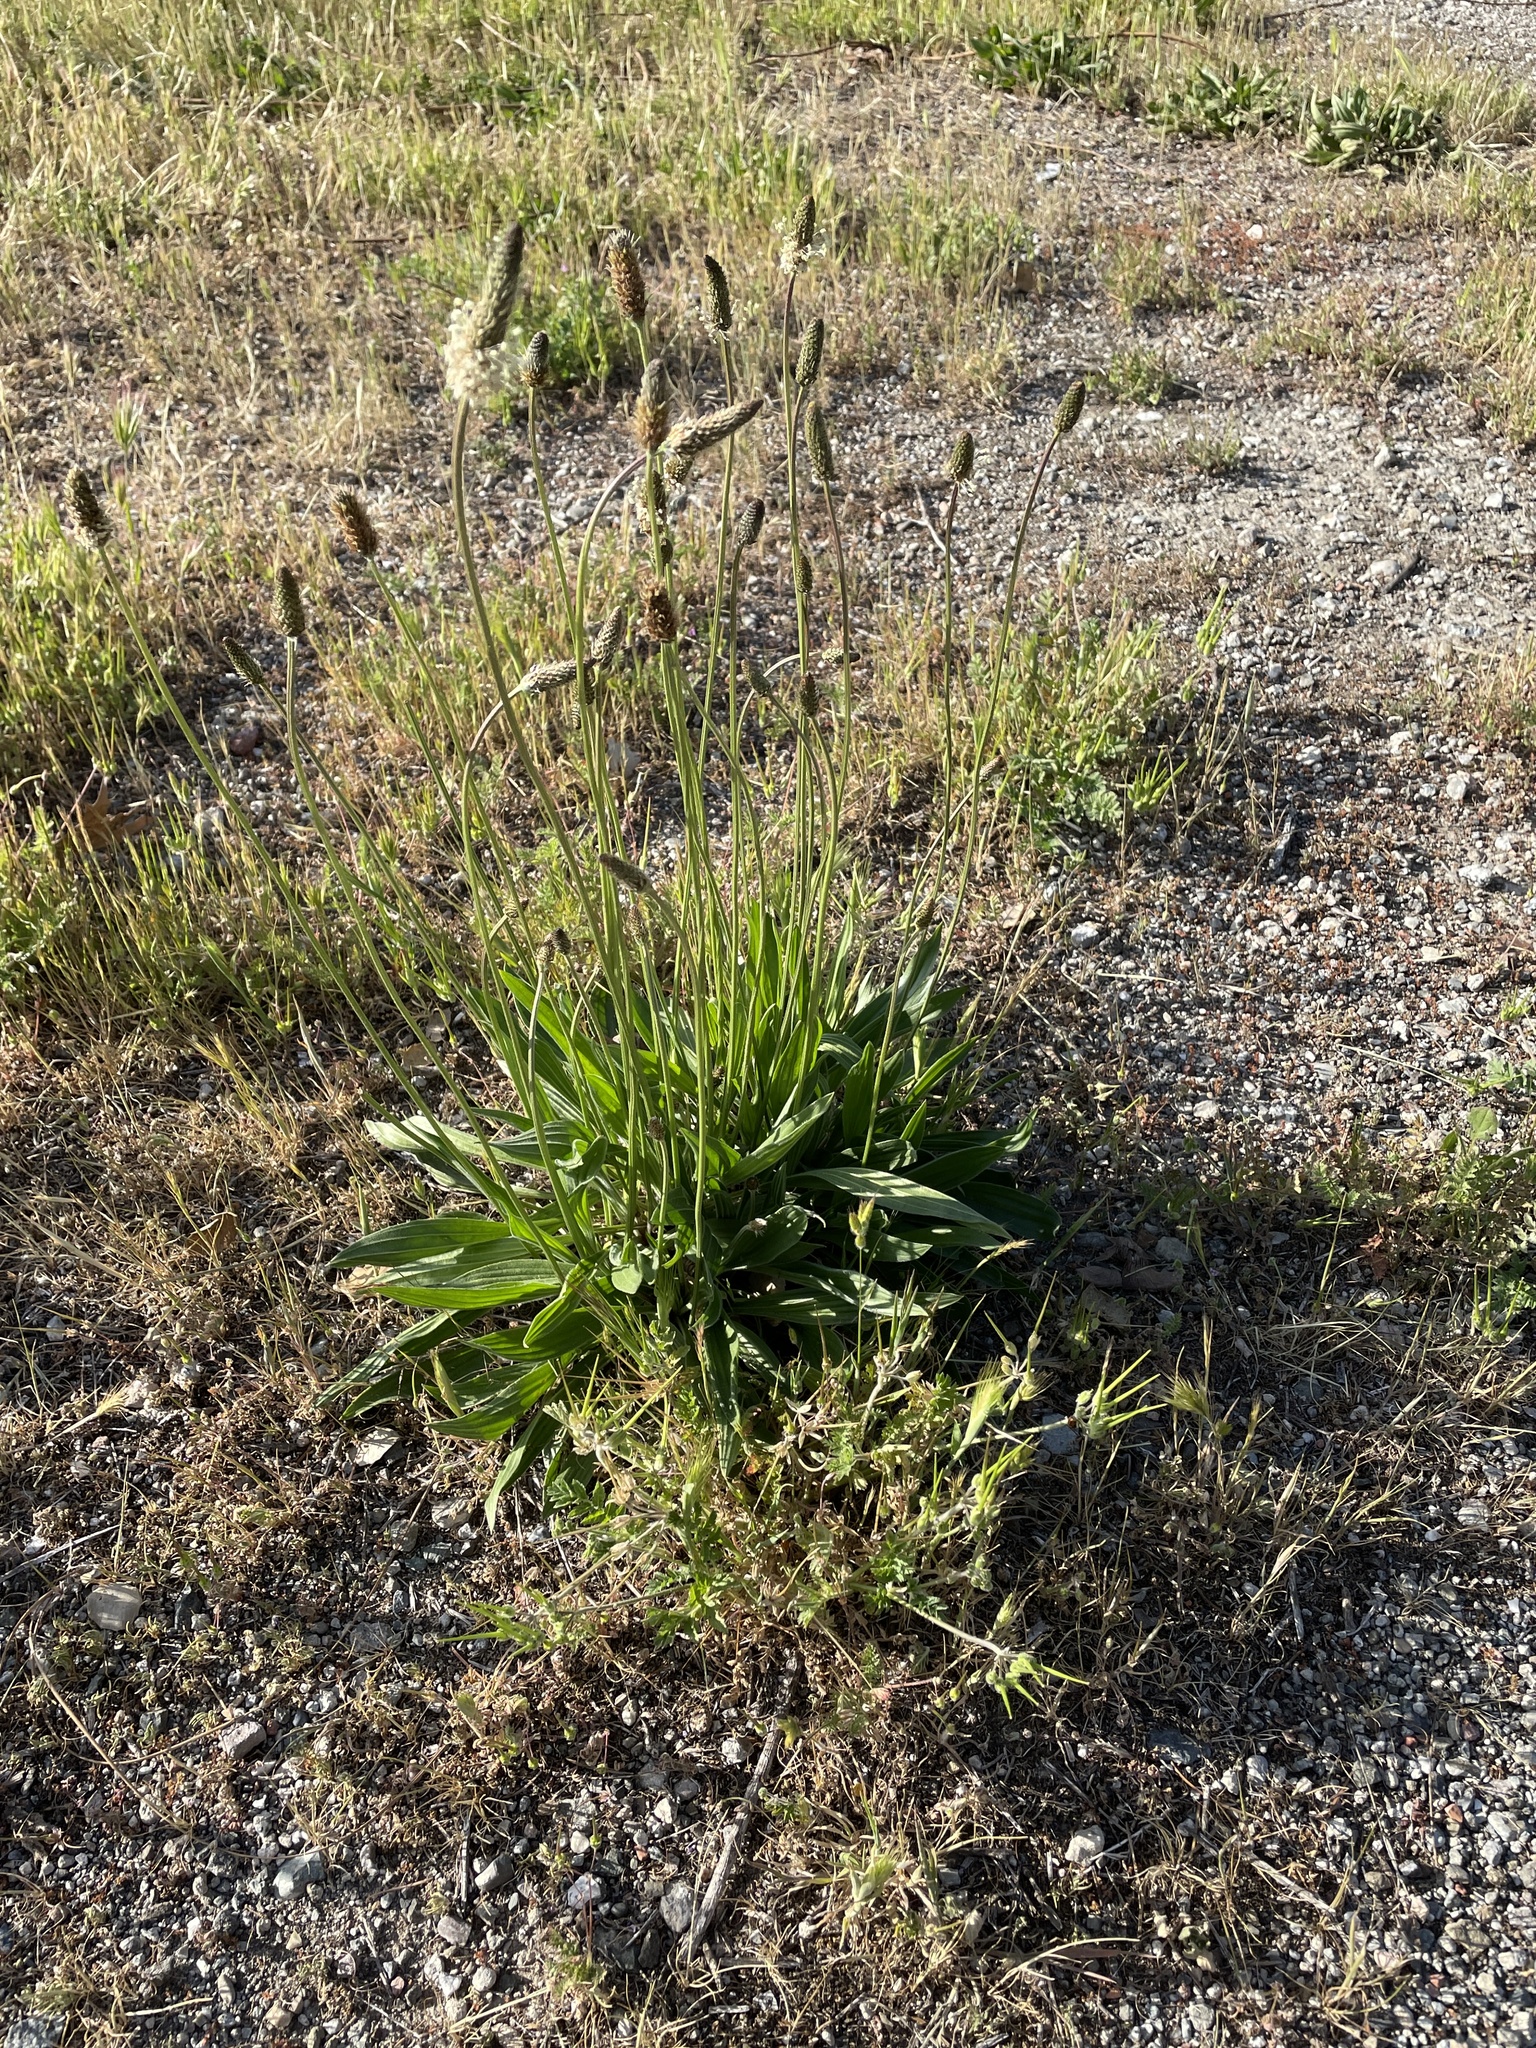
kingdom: Plantae
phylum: Tracheophyta
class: Magnoliopsida
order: Lamiales
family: Plantaginaceae
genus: Plantago
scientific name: Plantago lanceolata
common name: Ribwort plantain
